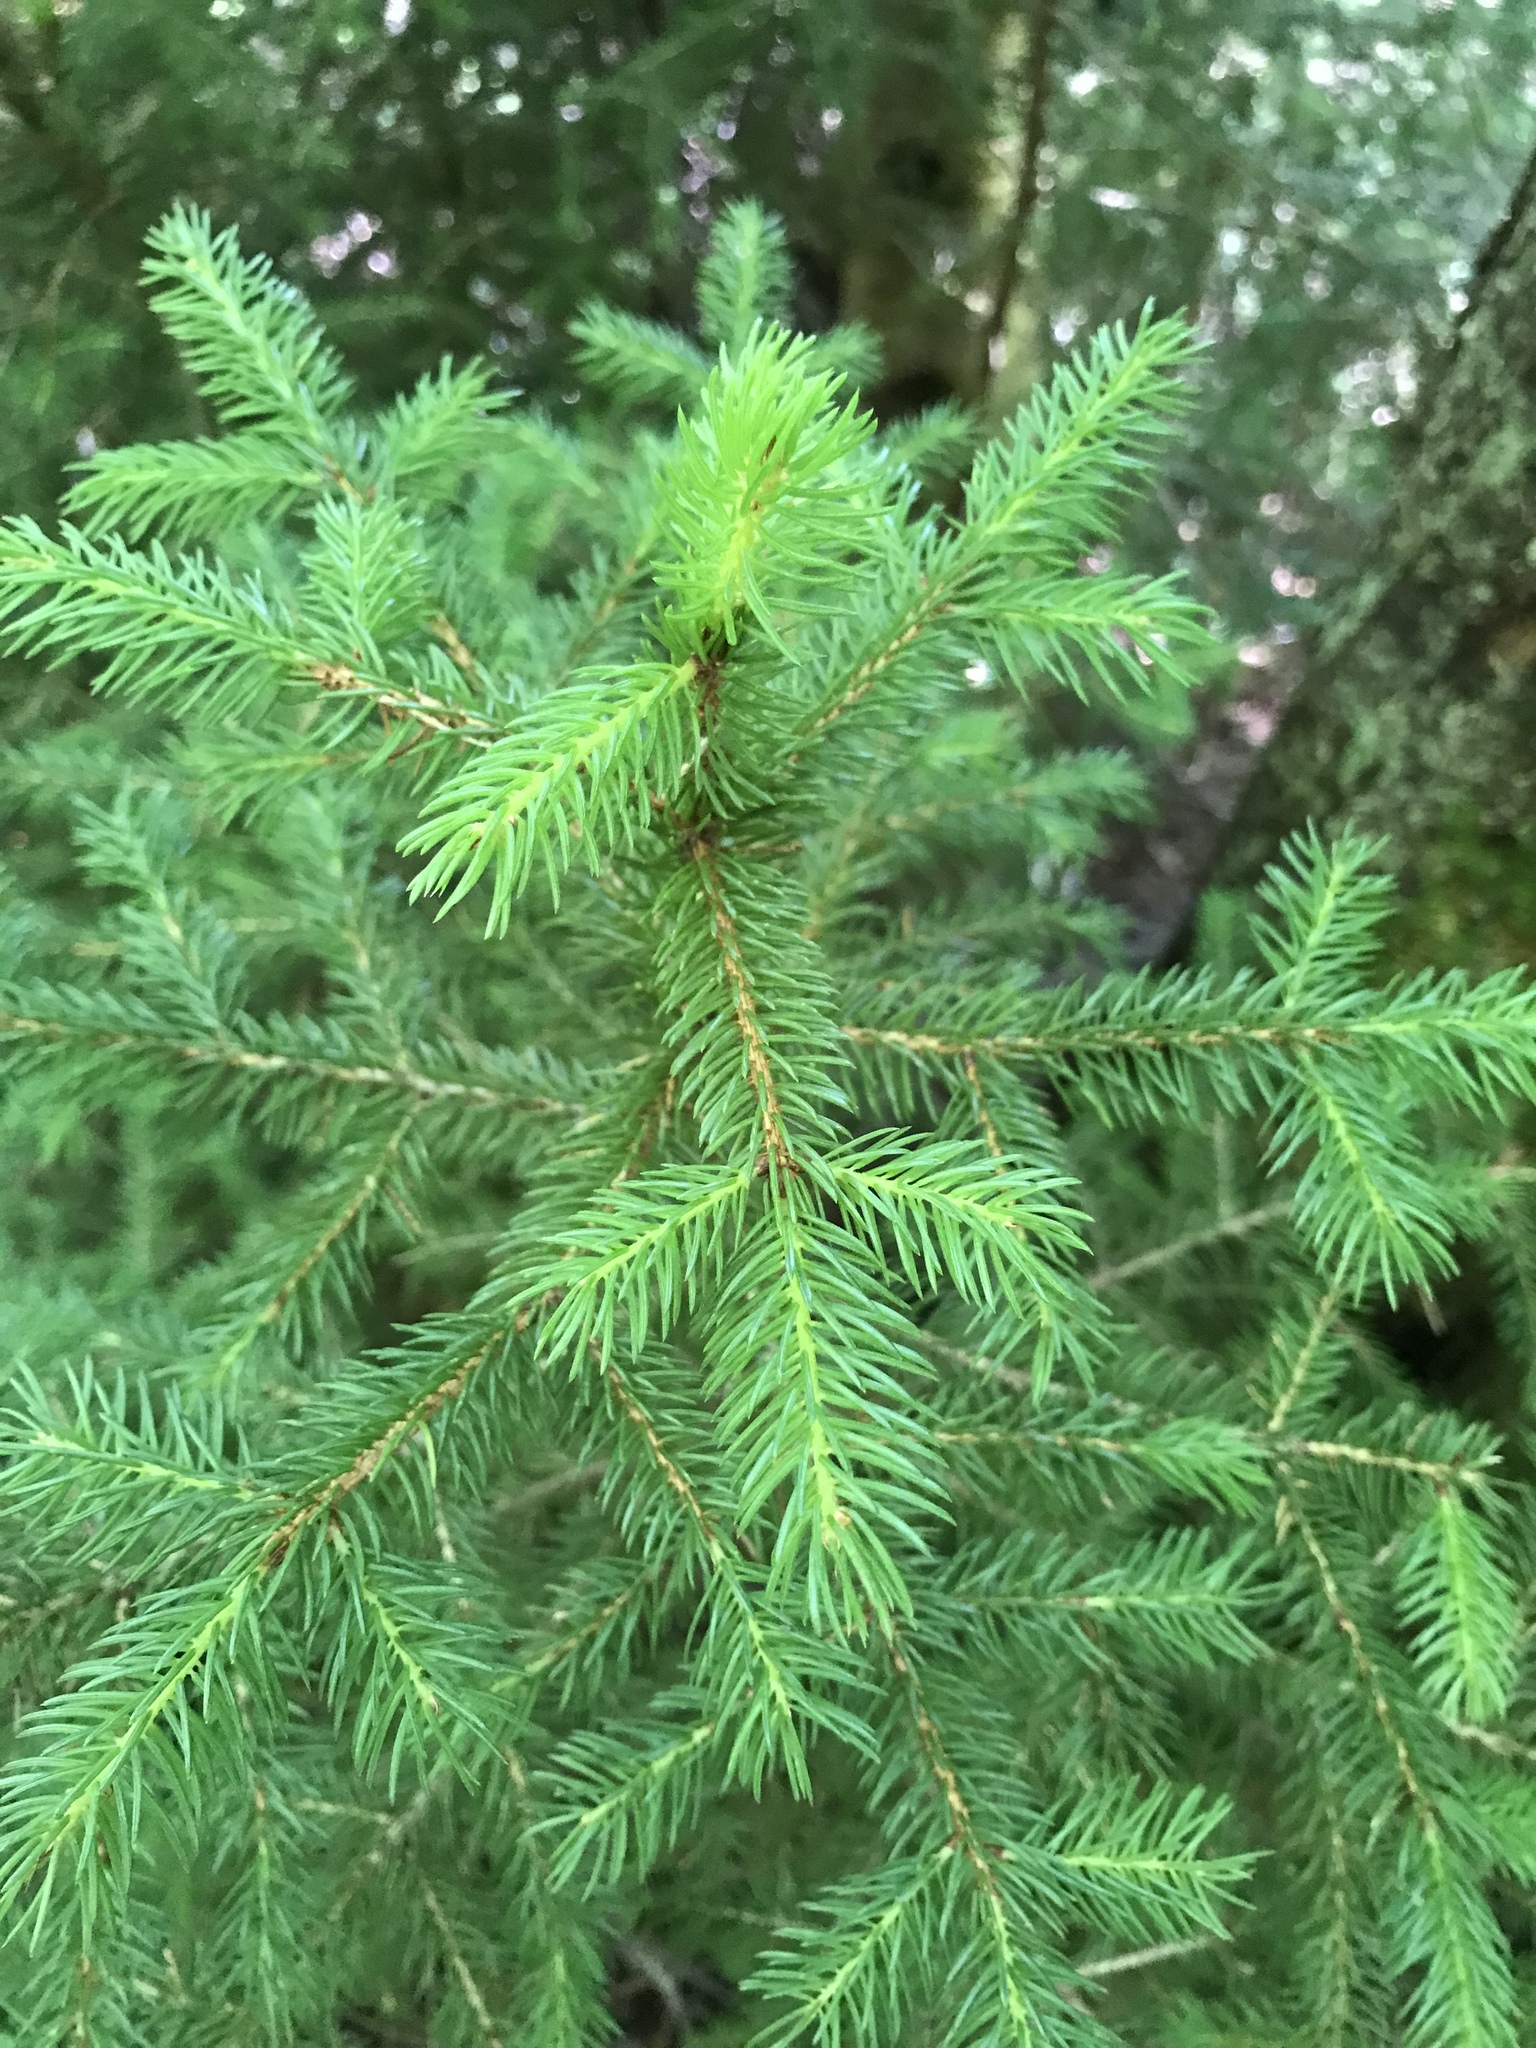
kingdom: Plantae
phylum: Tracheophyta
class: Pinopsida
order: Pinales
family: Pinaceae
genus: Picea
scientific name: Picea rubens
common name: Red spruce
